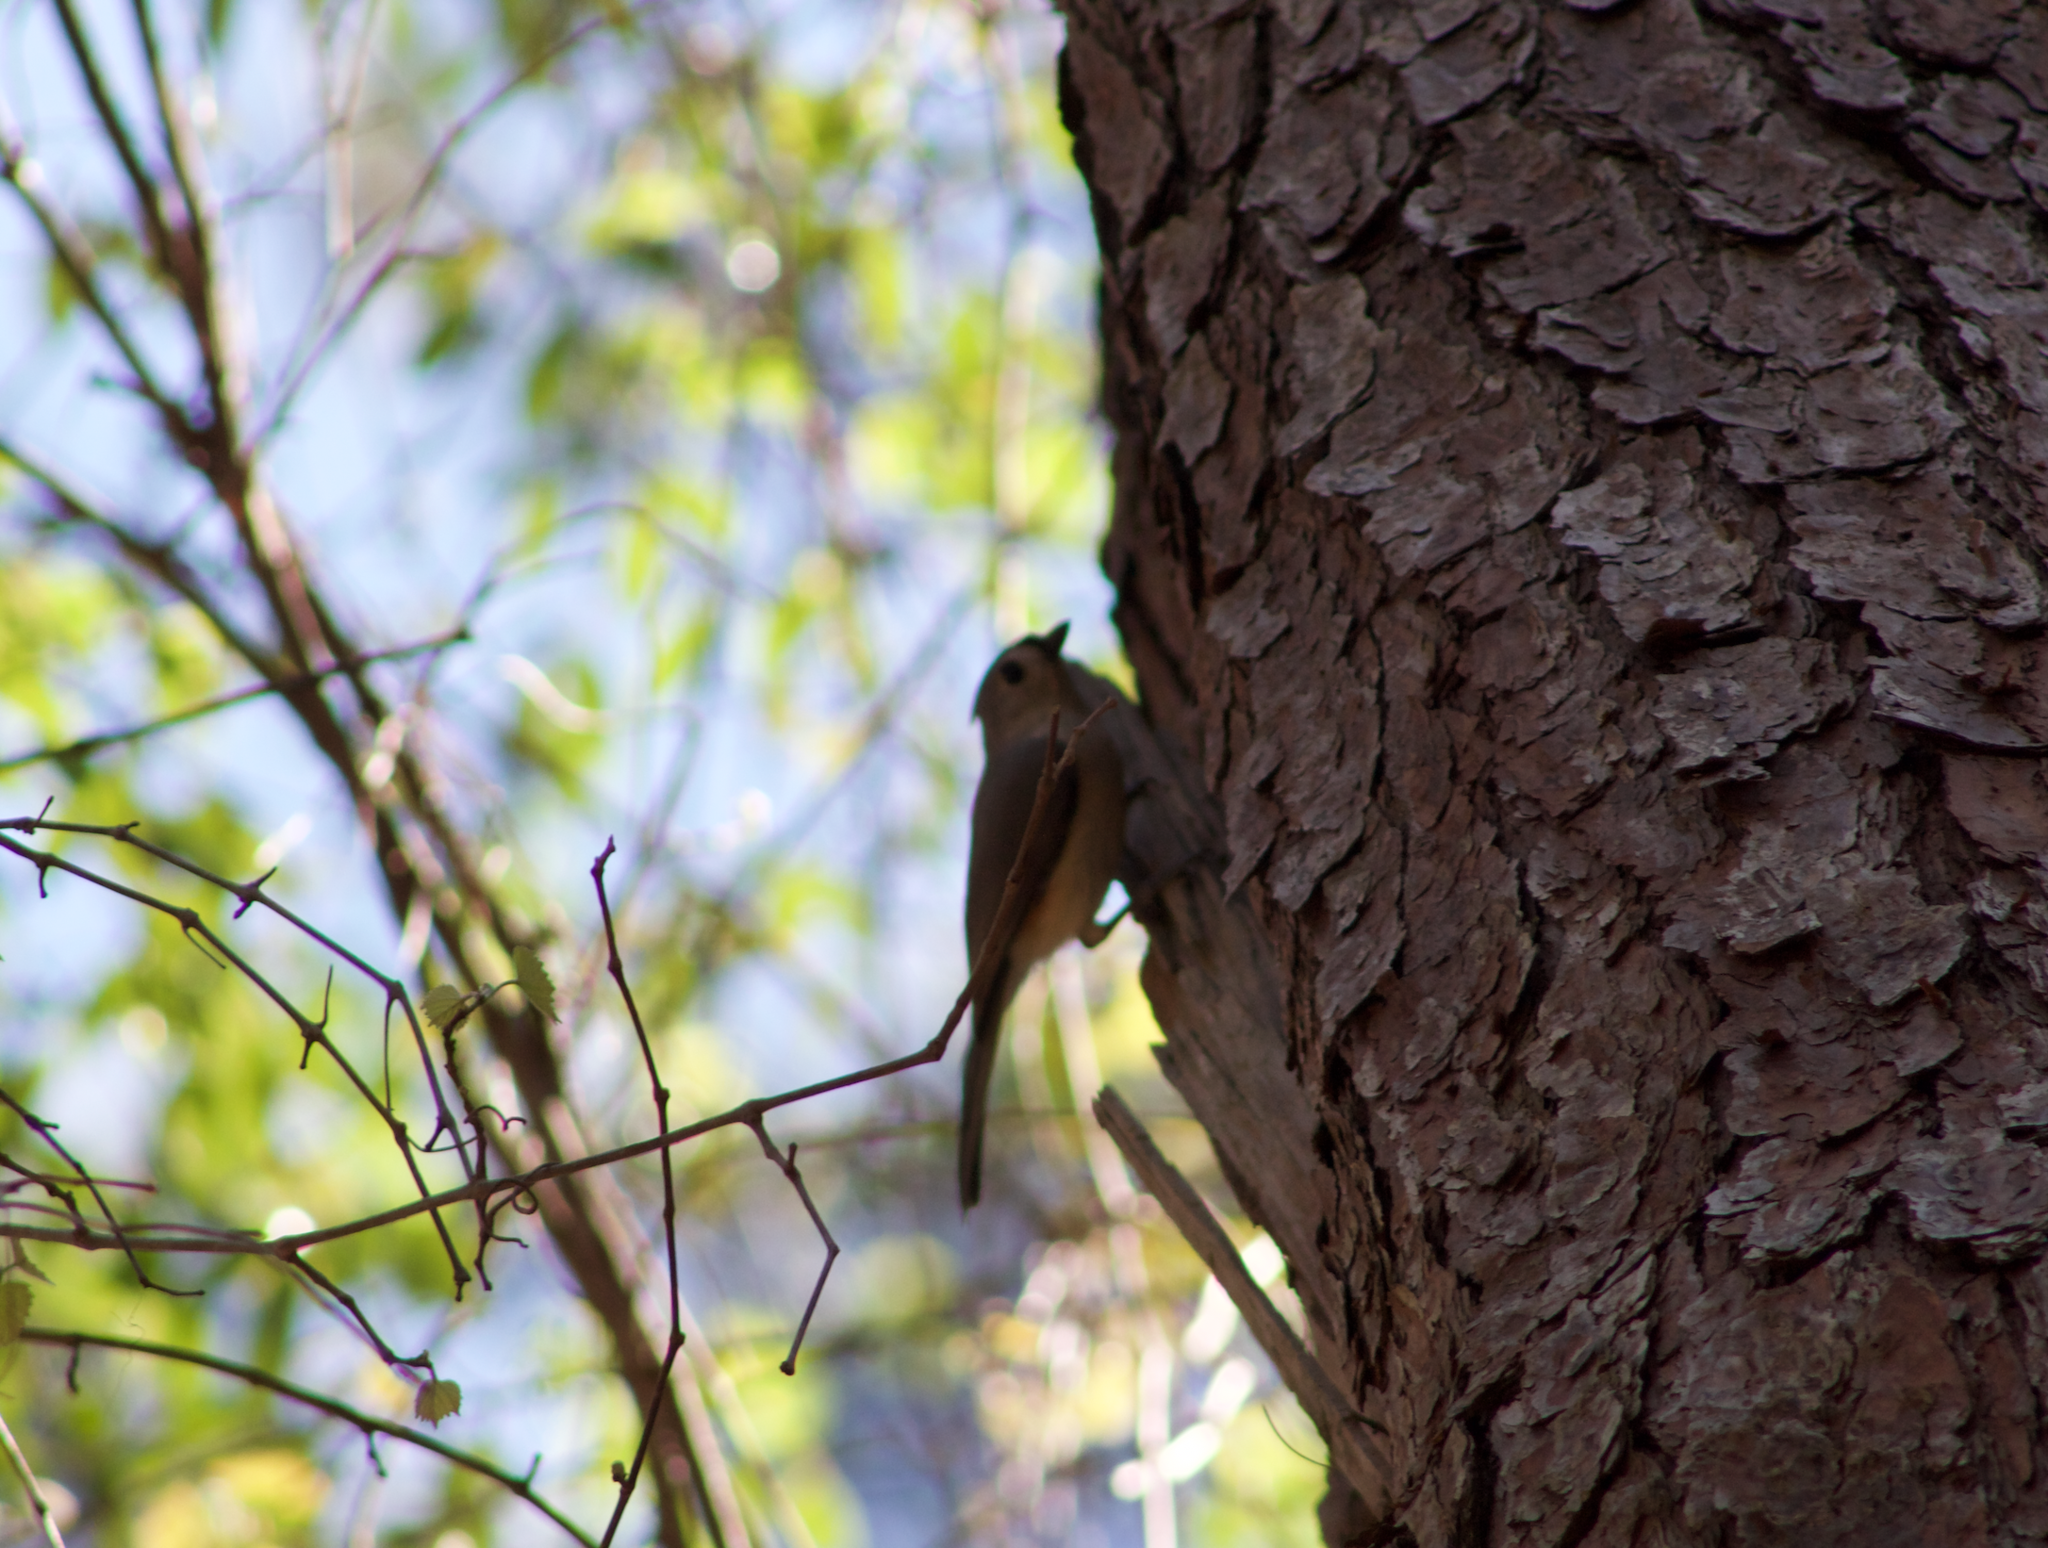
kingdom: Animalia
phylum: Chordata
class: Aves
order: Passeriformes
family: Paridae
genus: Baeolophus
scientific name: Baeolophus bicolor
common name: Tufted titmouse
